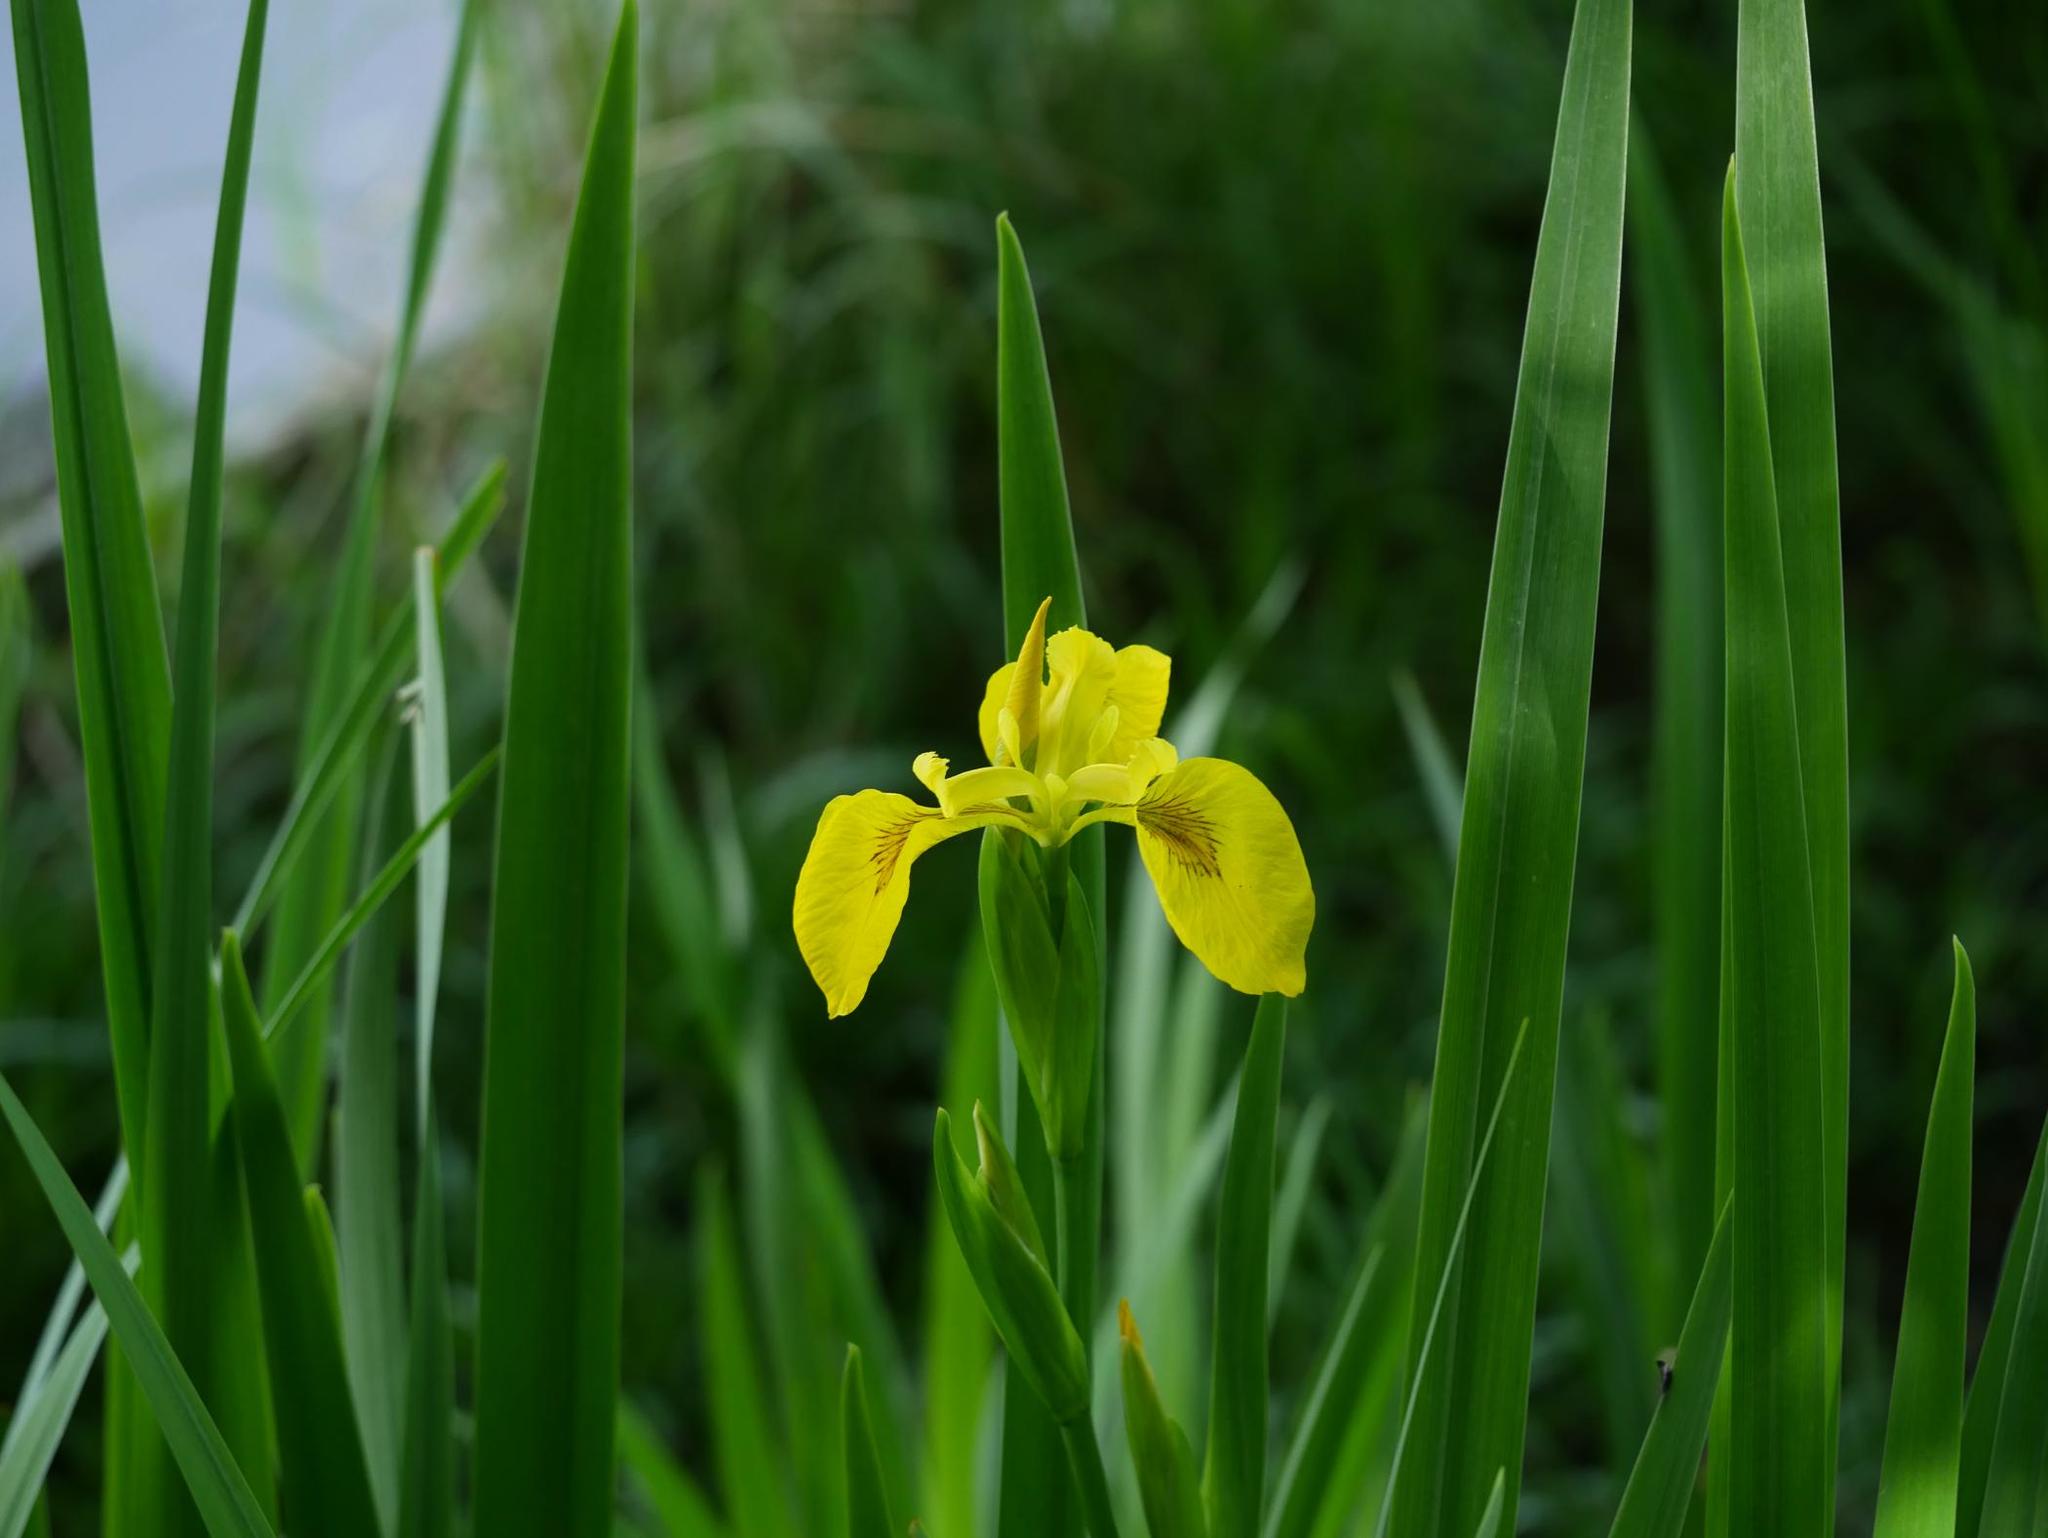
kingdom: Plantae
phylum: Tracheophyta
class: Liliopsida
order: Asparagales
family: Iridaceae
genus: Iris
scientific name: Iris pseudacorus
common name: Yellow flag
